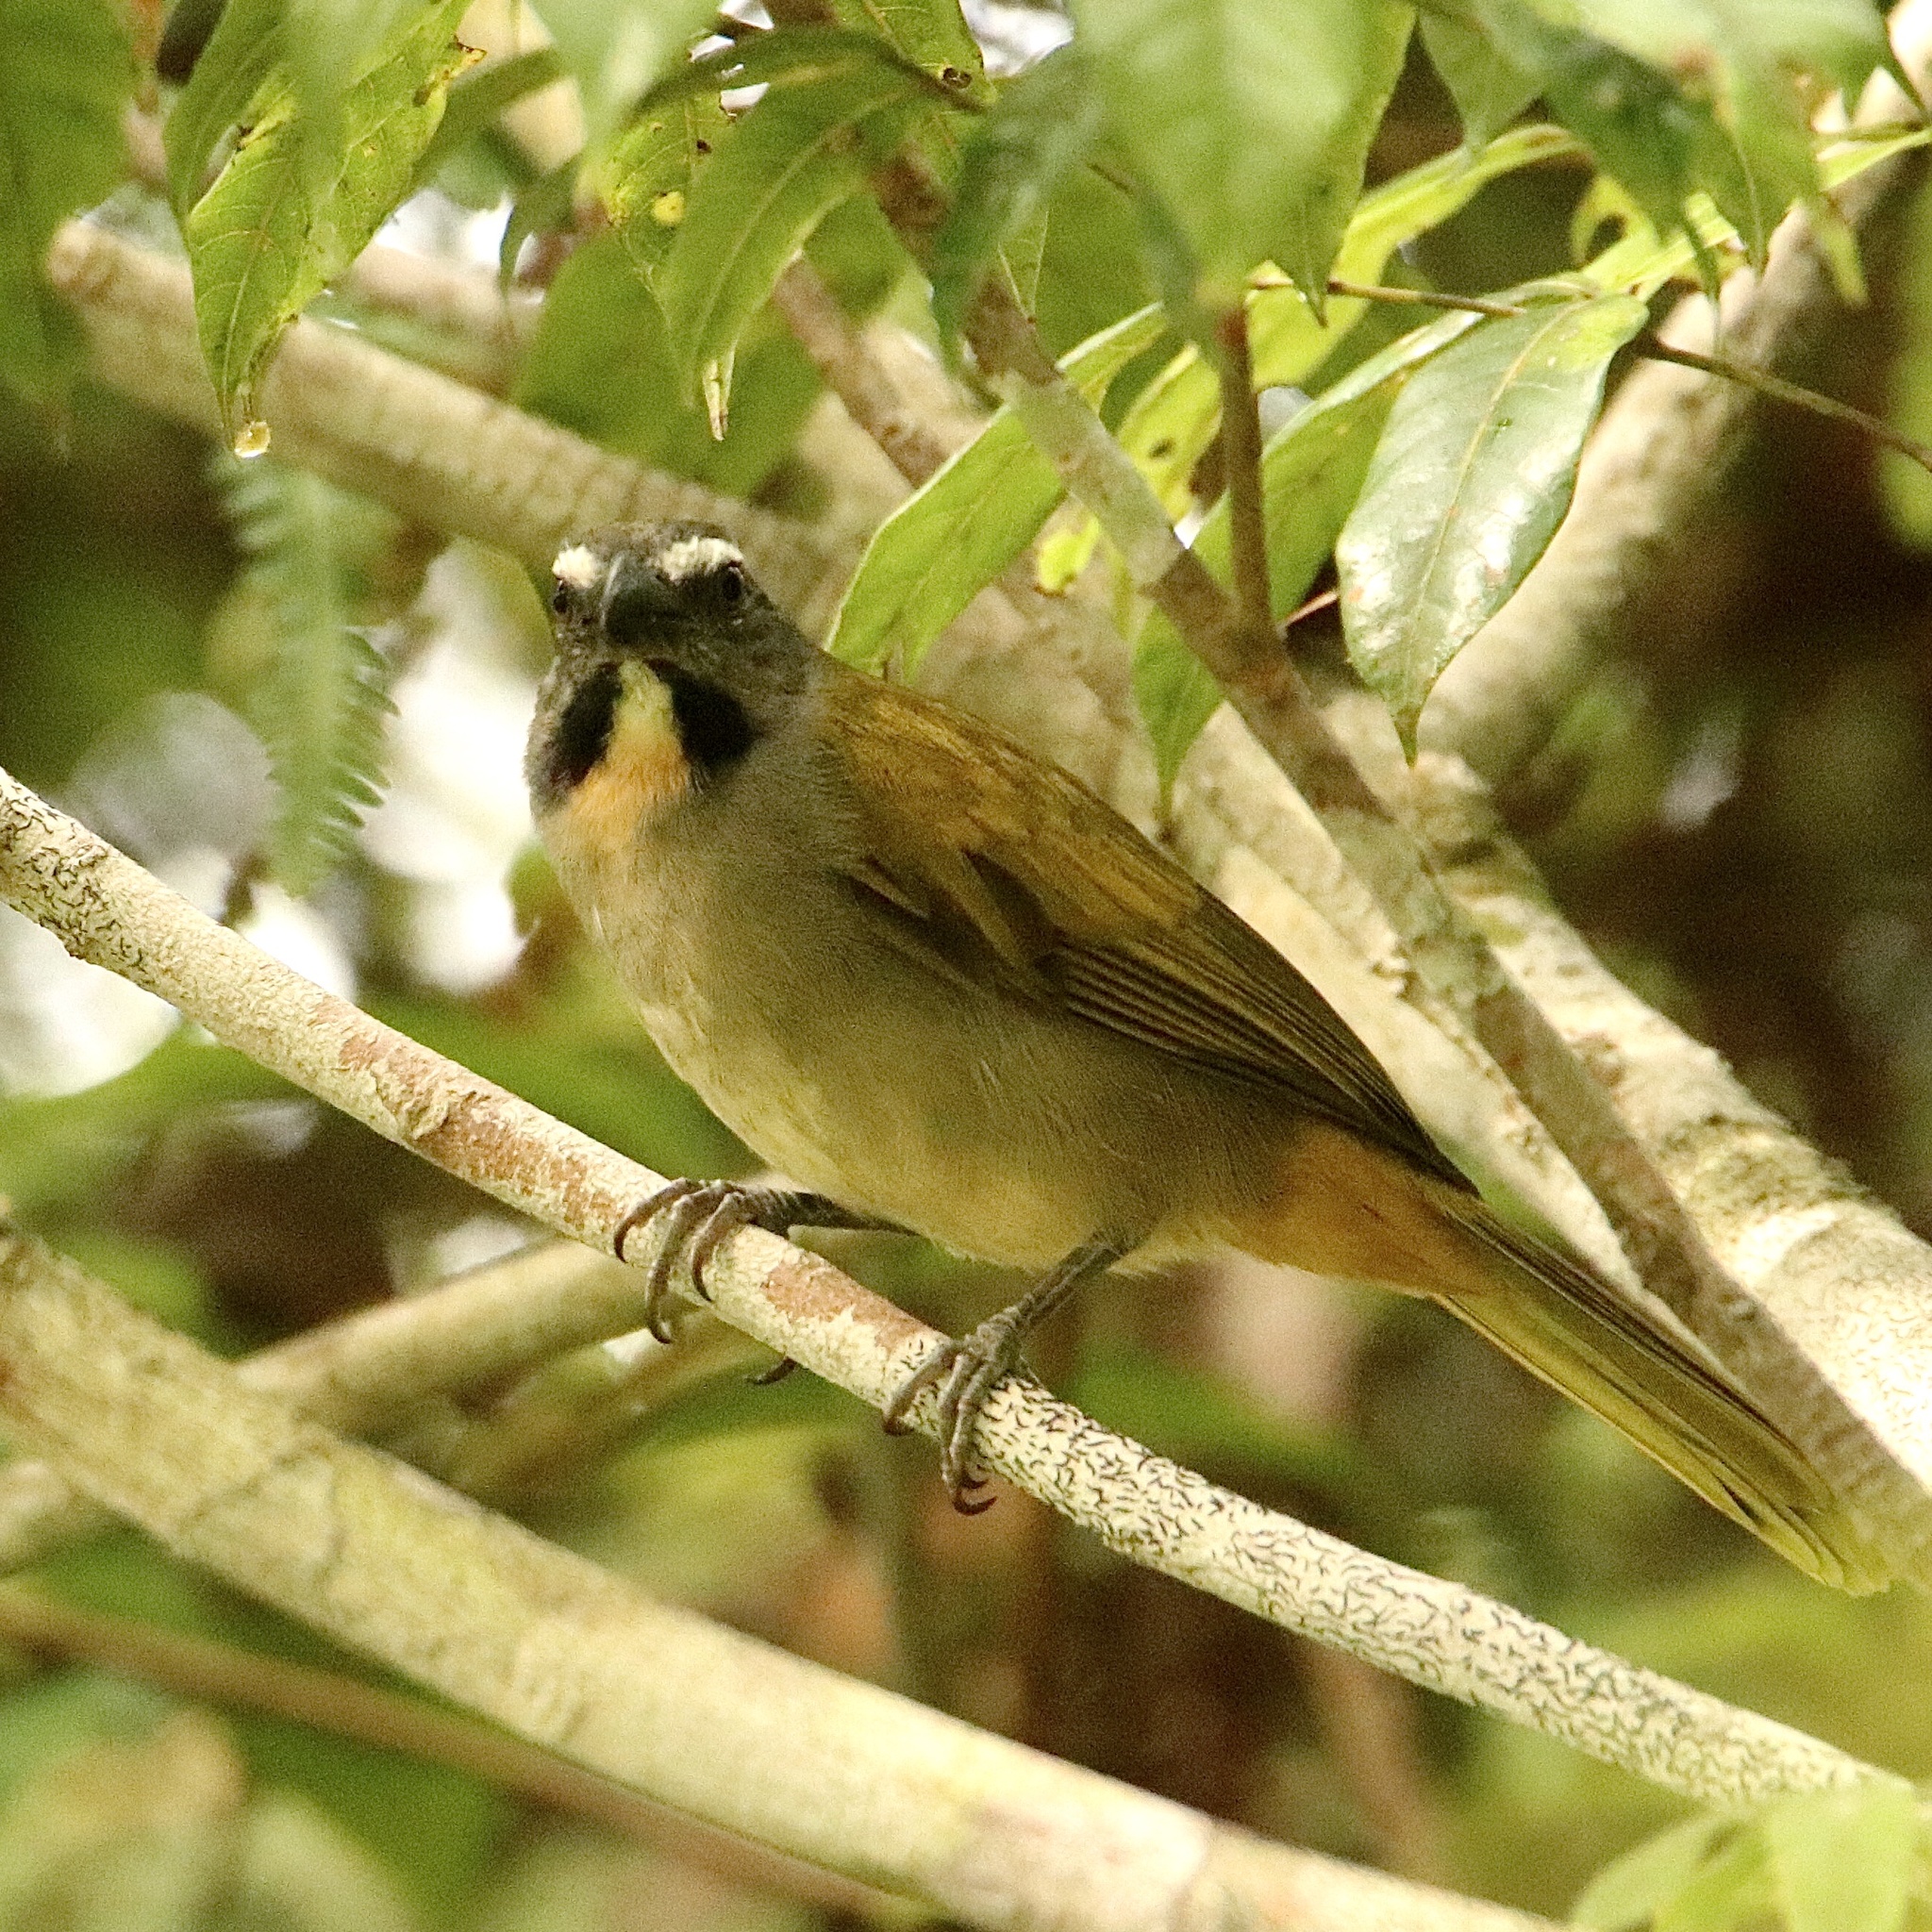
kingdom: Animalia
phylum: Chordata
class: Aves
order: Passeriformes
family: Thraupidae
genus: Saltator
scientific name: Saltator maximus
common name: Buff-throated saltator
